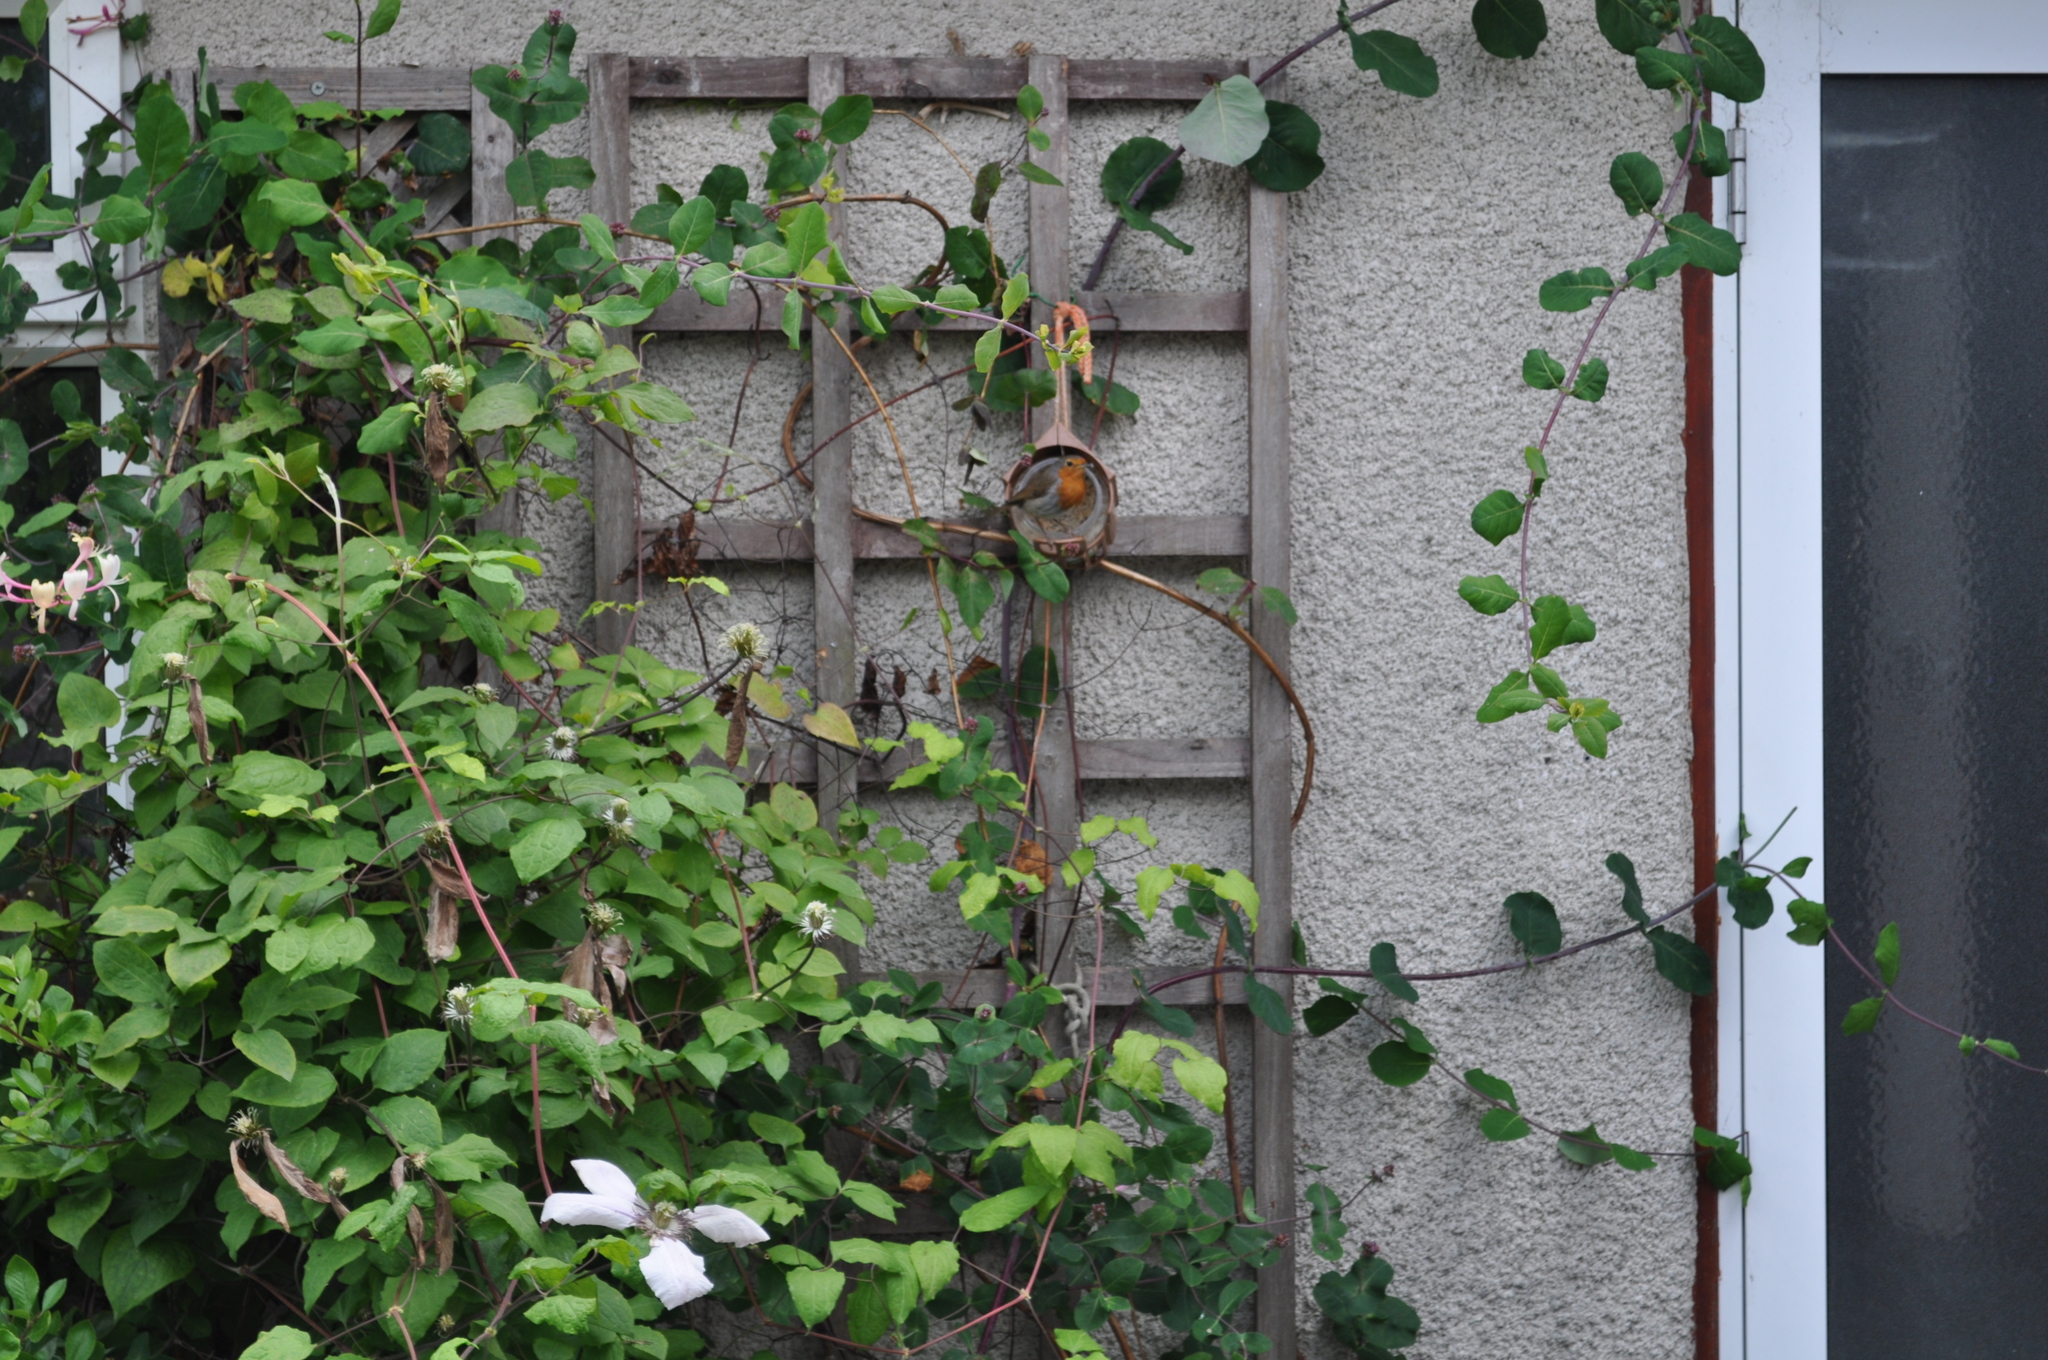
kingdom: Animalia
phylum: Chordata
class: Aves
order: Passeriformes
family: Muscicapidae
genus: Erithacus
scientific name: Erithacus rubecula
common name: European robin
